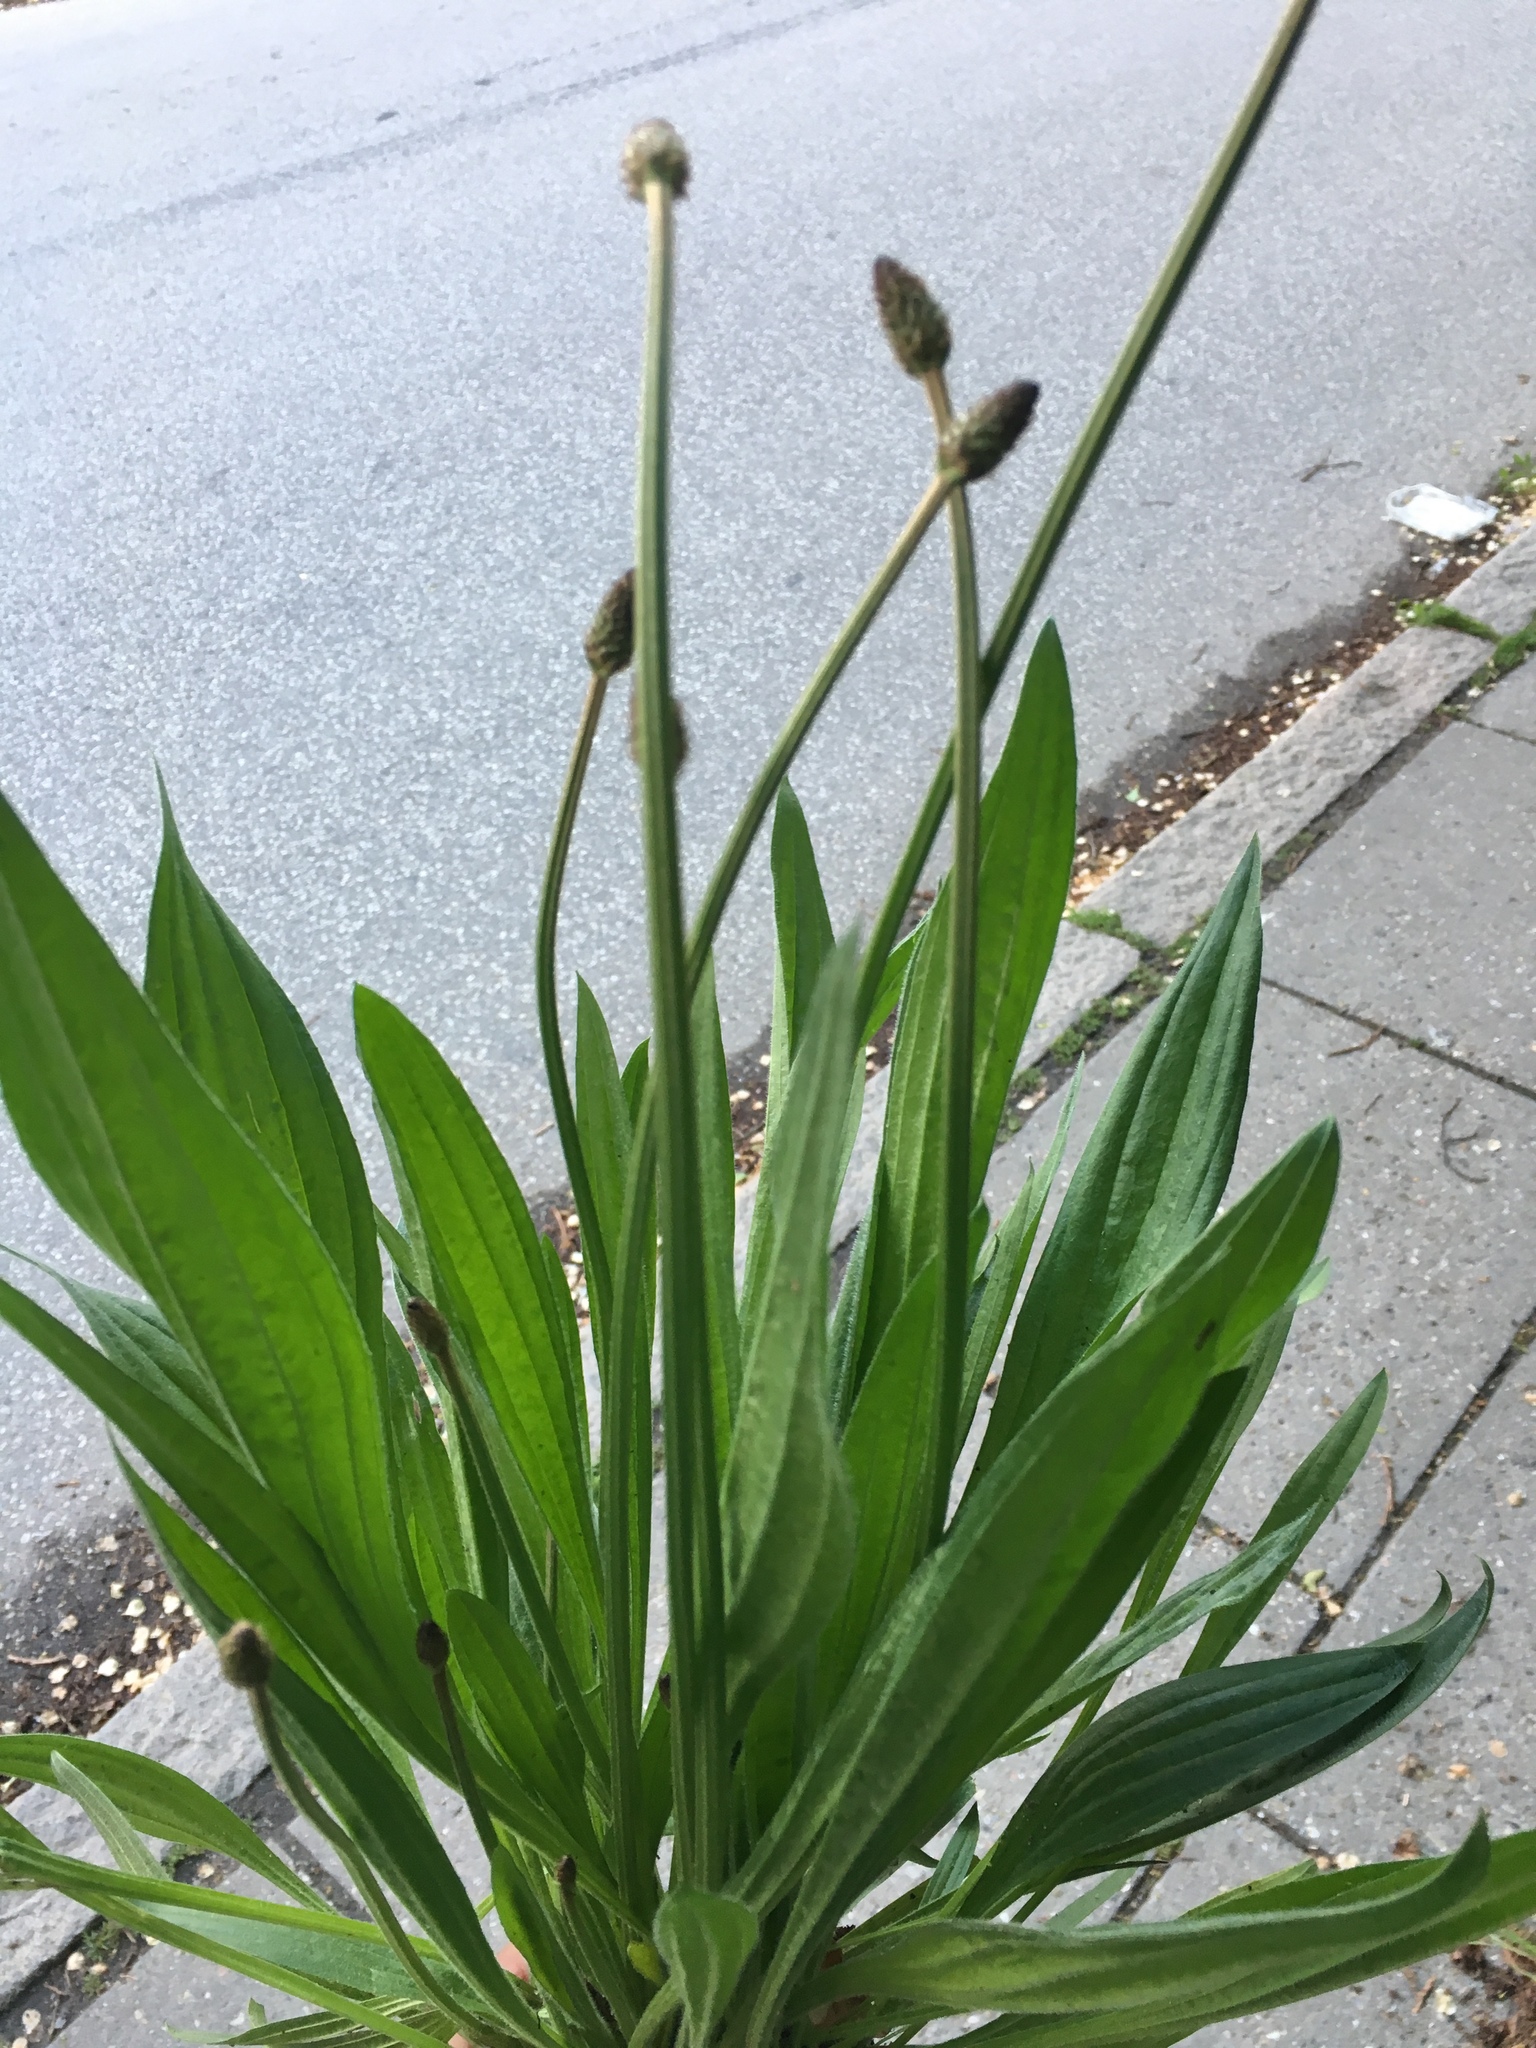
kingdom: Plantae
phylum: Tracheophyta
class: Magnoliopsida
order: Lamiales
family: Plantaginaceae
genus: Plantago
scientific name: Plantago lanceolata
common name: Ribwort plantain
